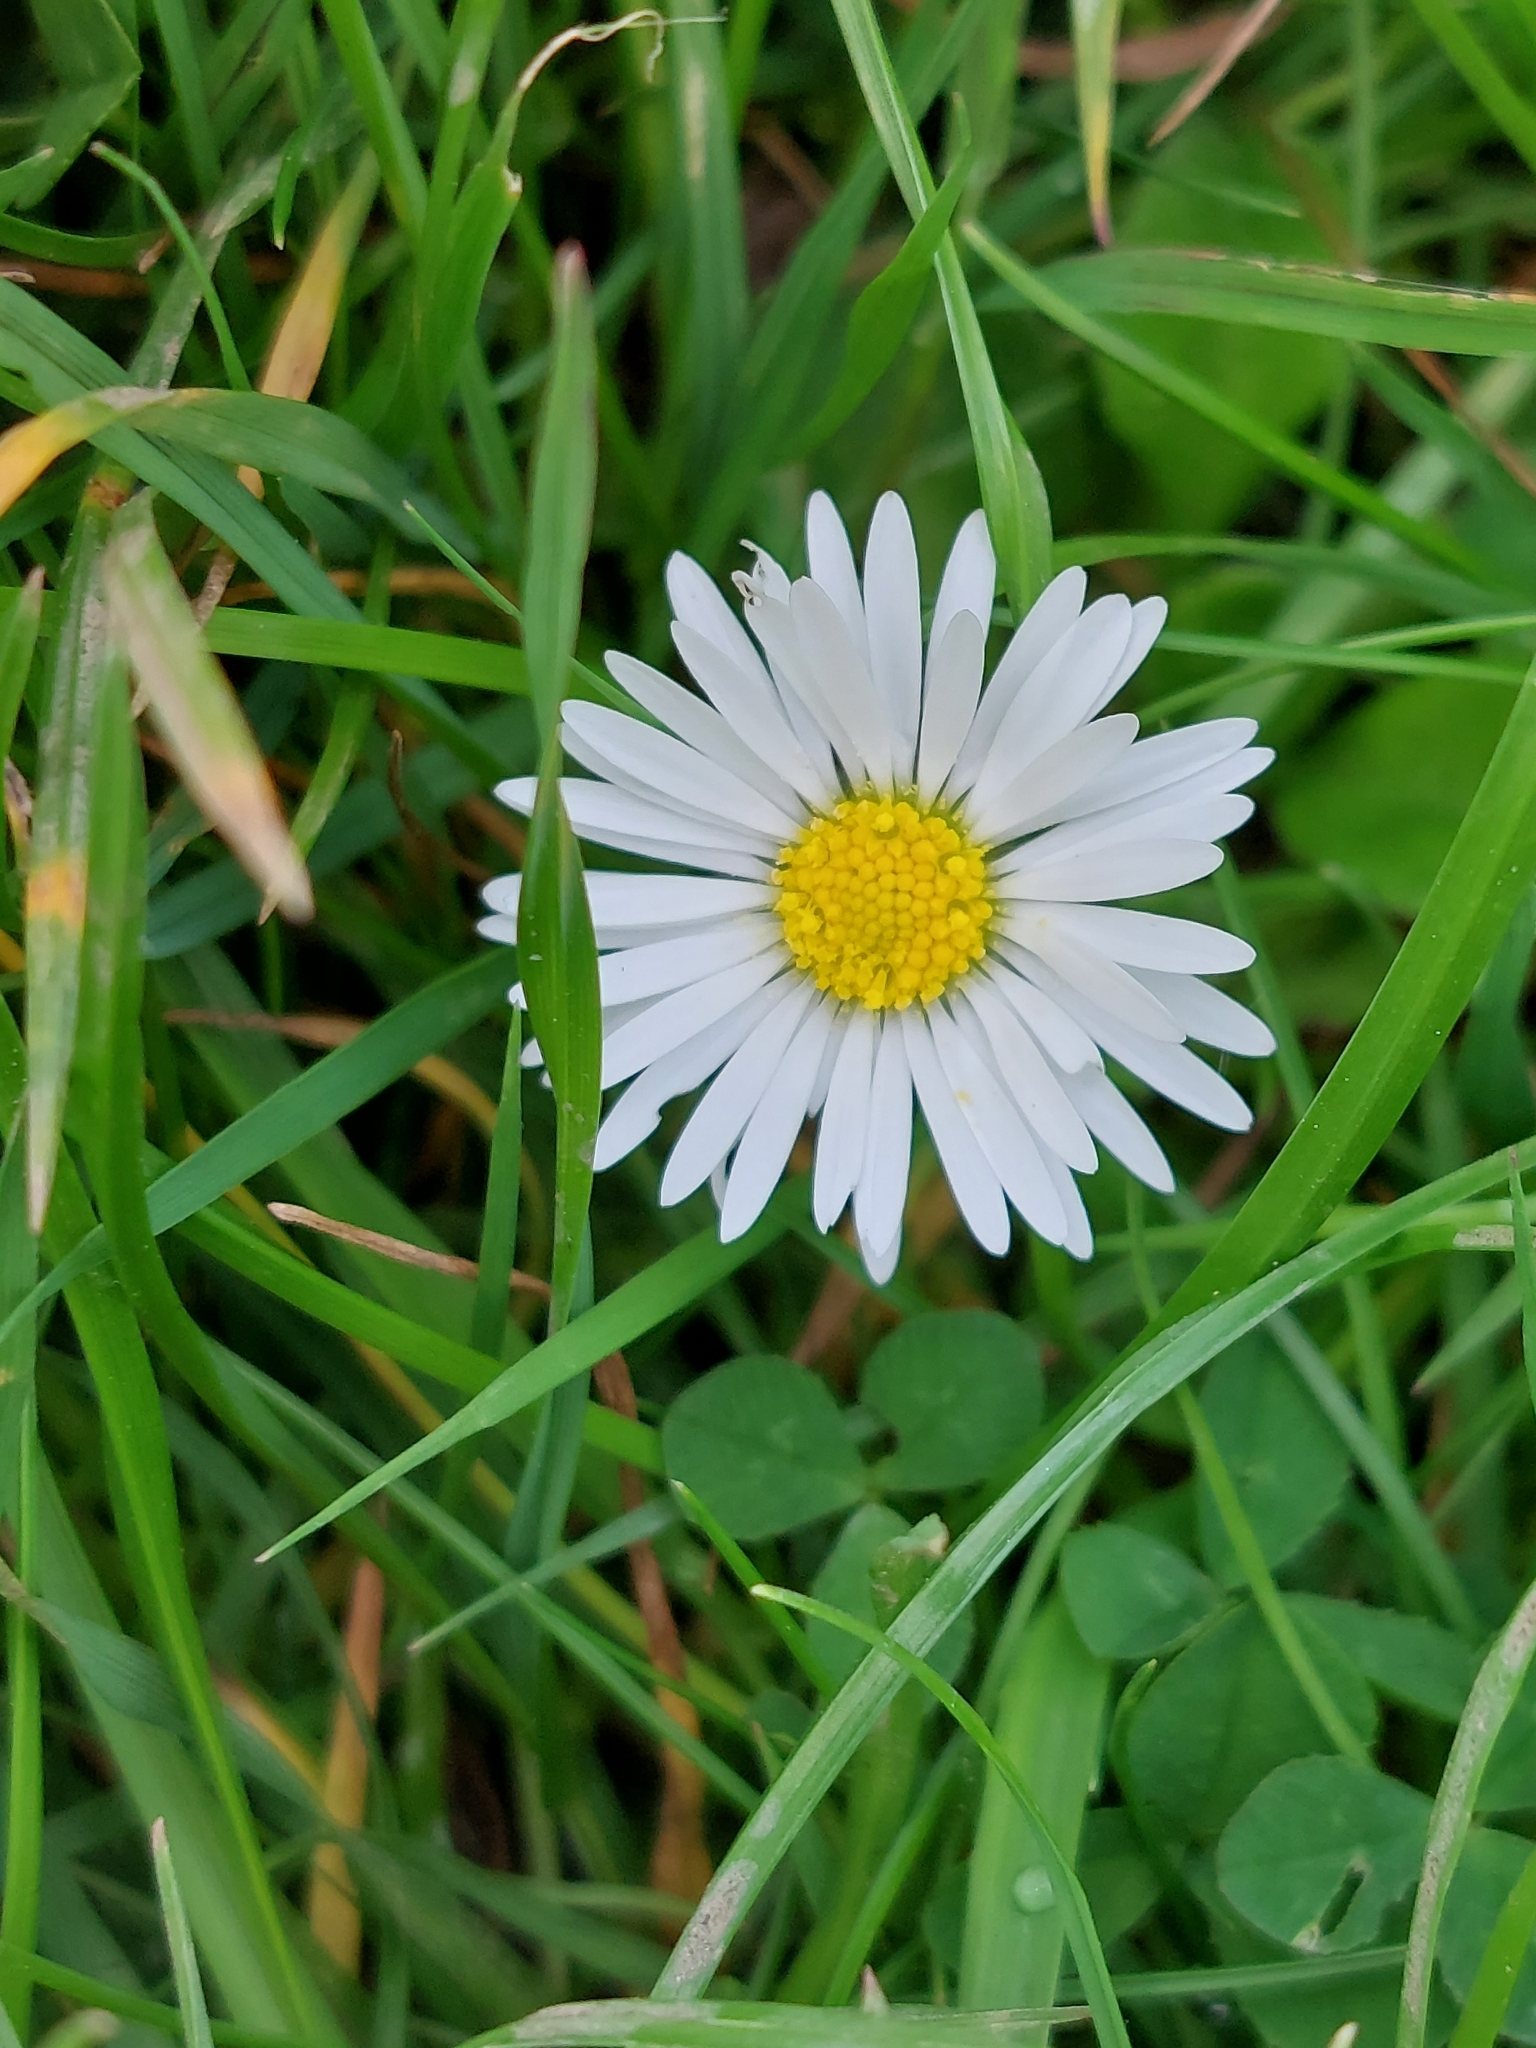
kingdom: Plantae
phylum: Tracheophyta
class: Magnoliopsida
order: Asterales
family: Asteraceae
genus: Bellis
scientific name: Bellis perennis
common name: Lawndaisy
